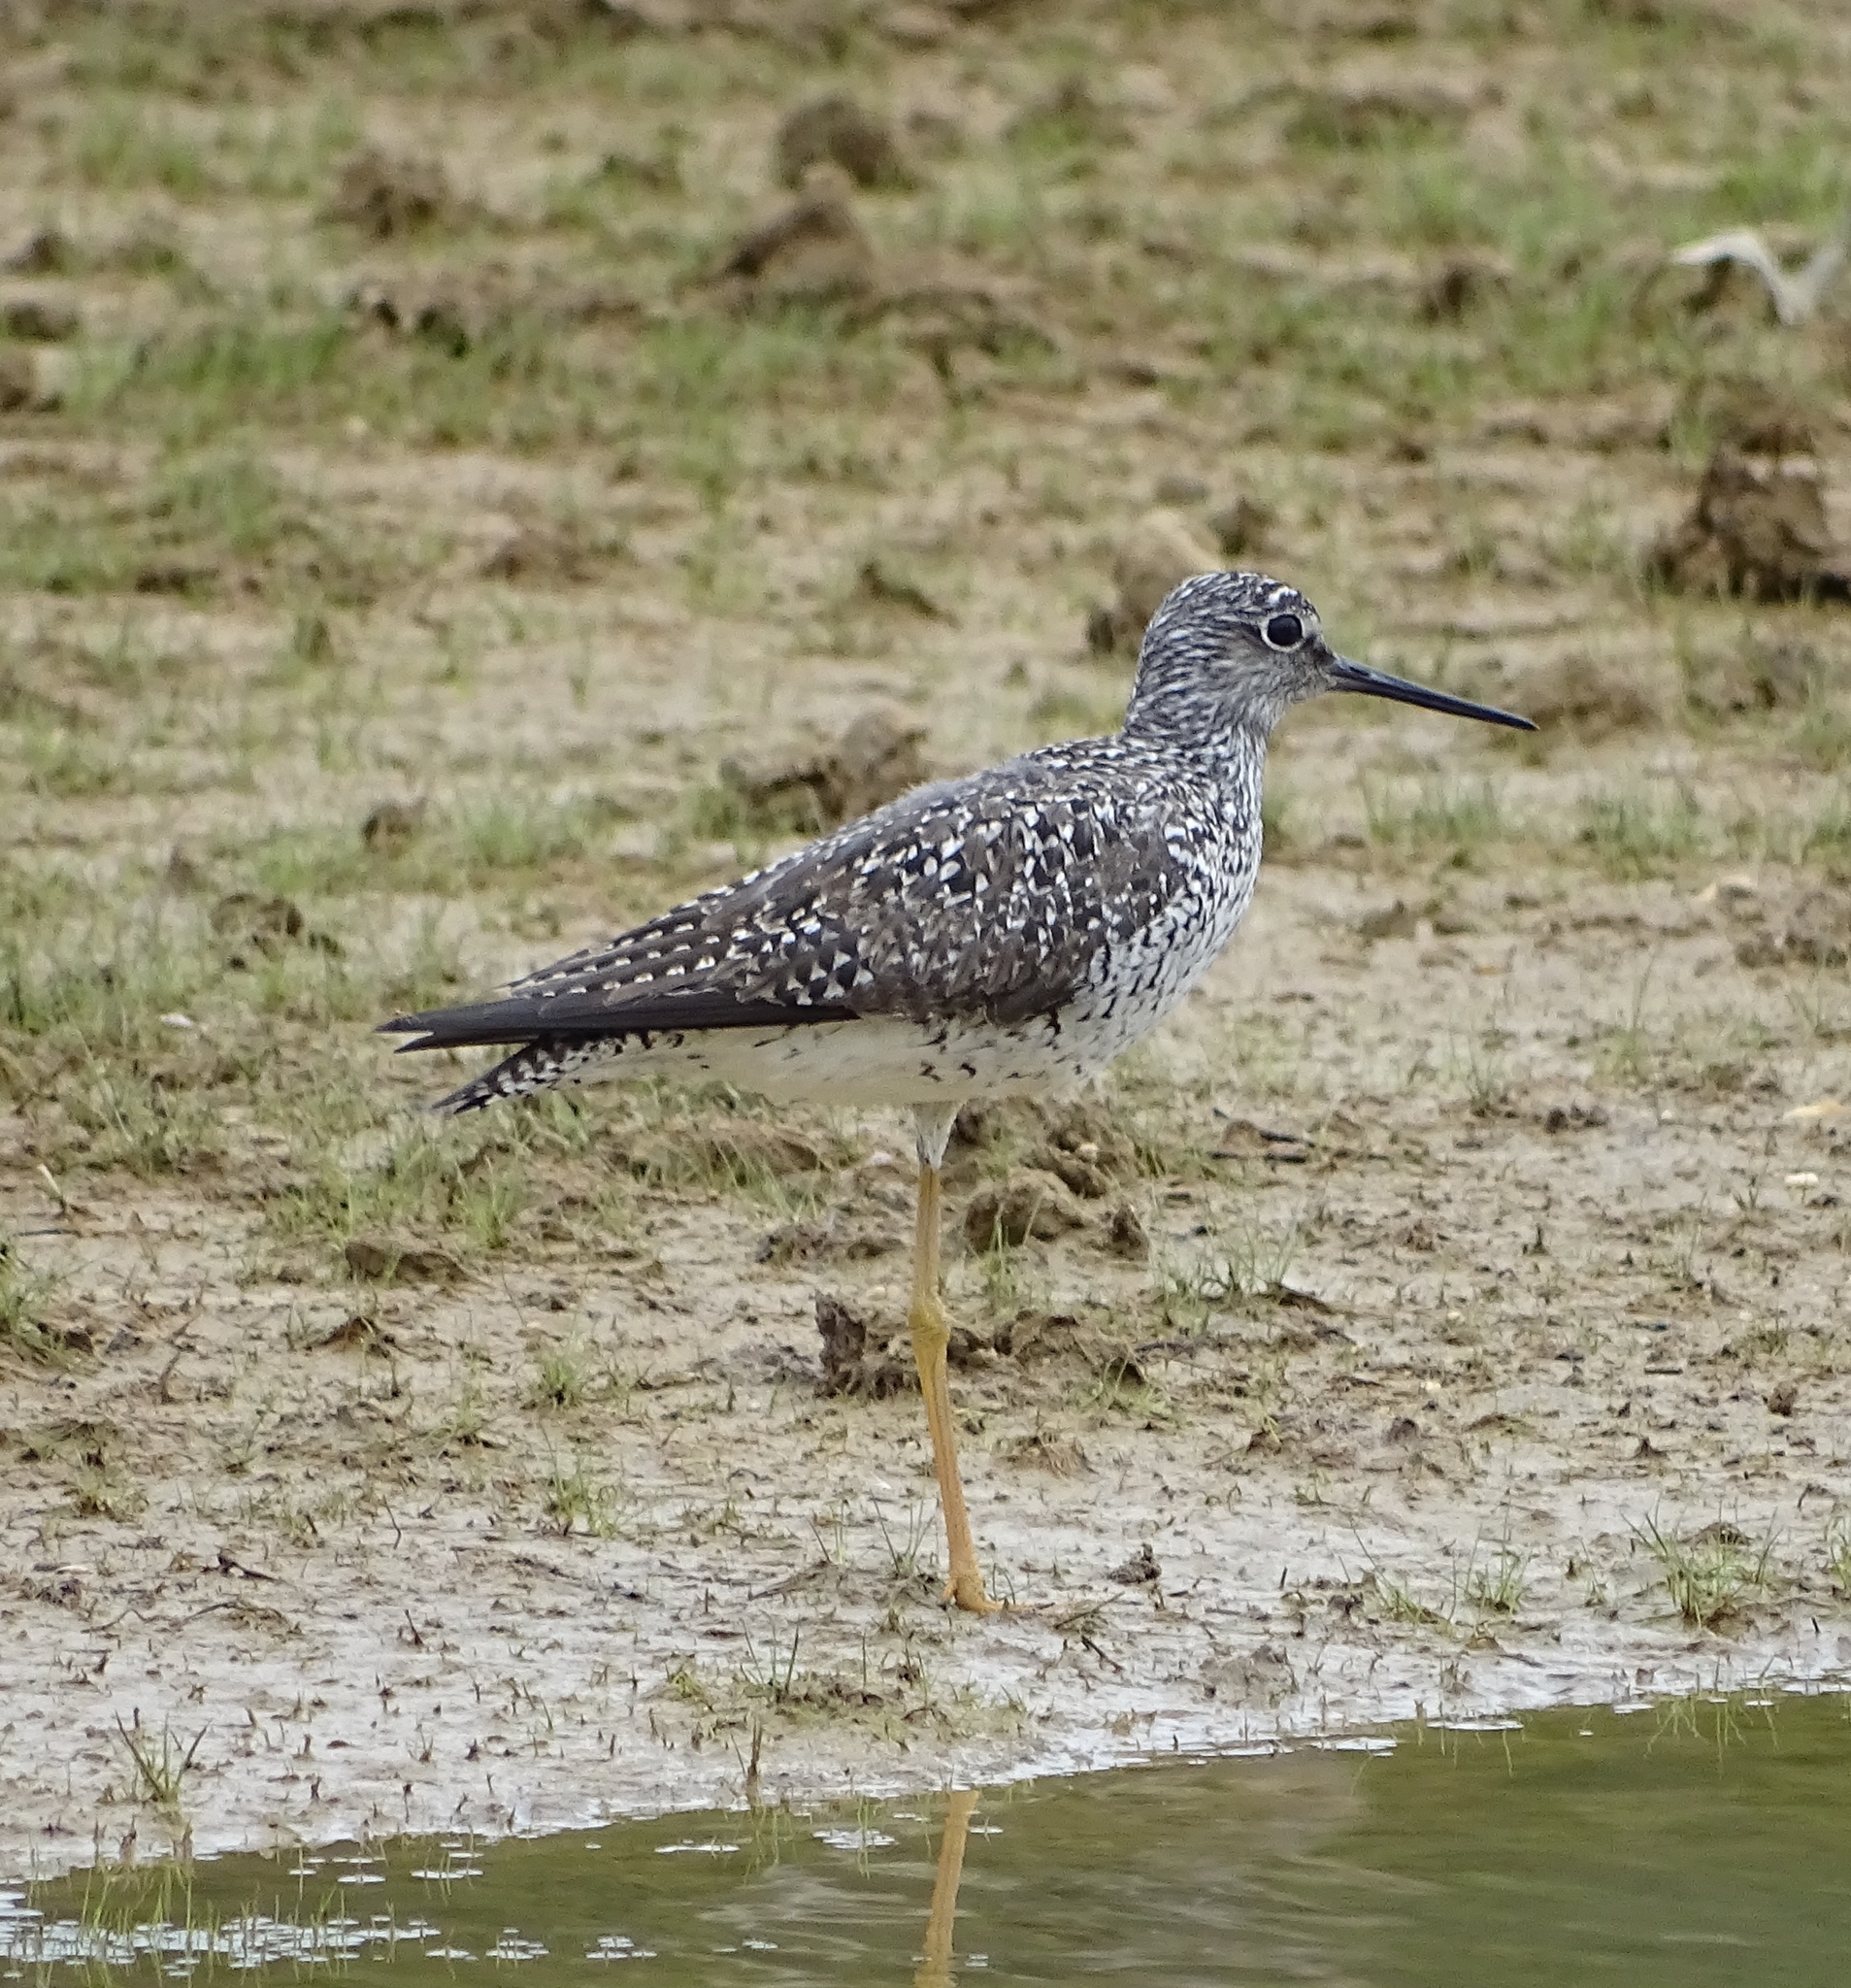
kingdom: Animalia
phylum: Chordata
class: Aves
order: Charadriiformes
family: Scolopacidae
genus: Tringa
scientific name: Tringa melanoleuca
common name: Greater yellowlegs
